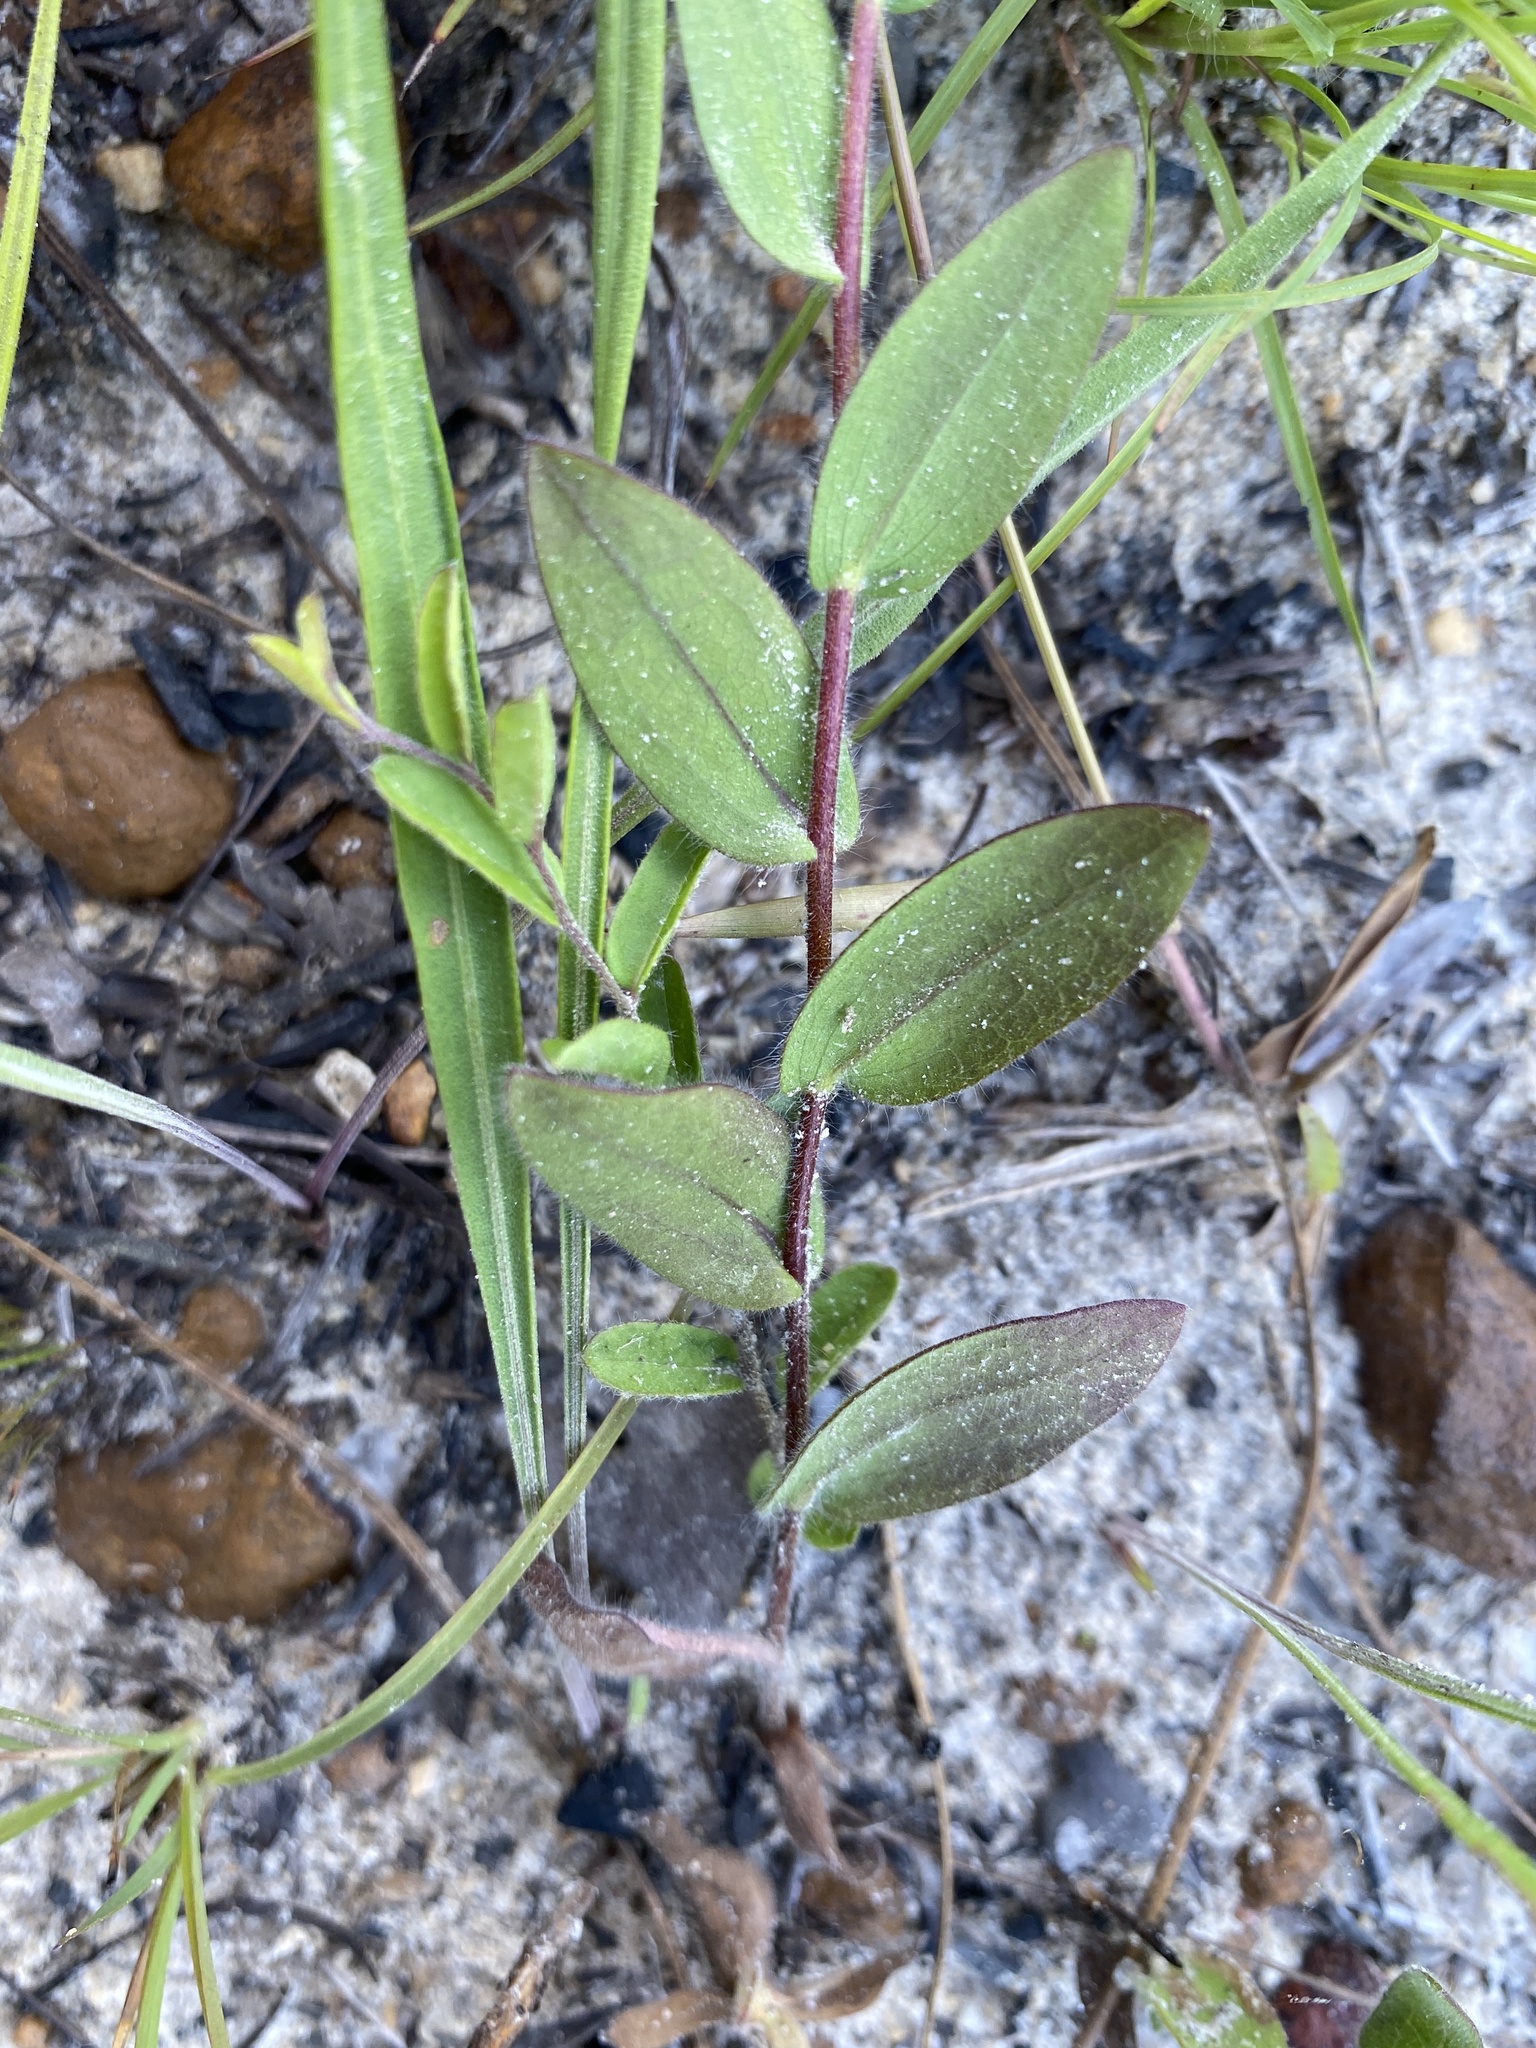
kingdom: Plantae
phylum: Tracheophyta
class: Magnoliopsida
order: Asterales
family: Asteraceae
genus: Symphyotrichum
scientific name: Symphyotrichum plumosum
